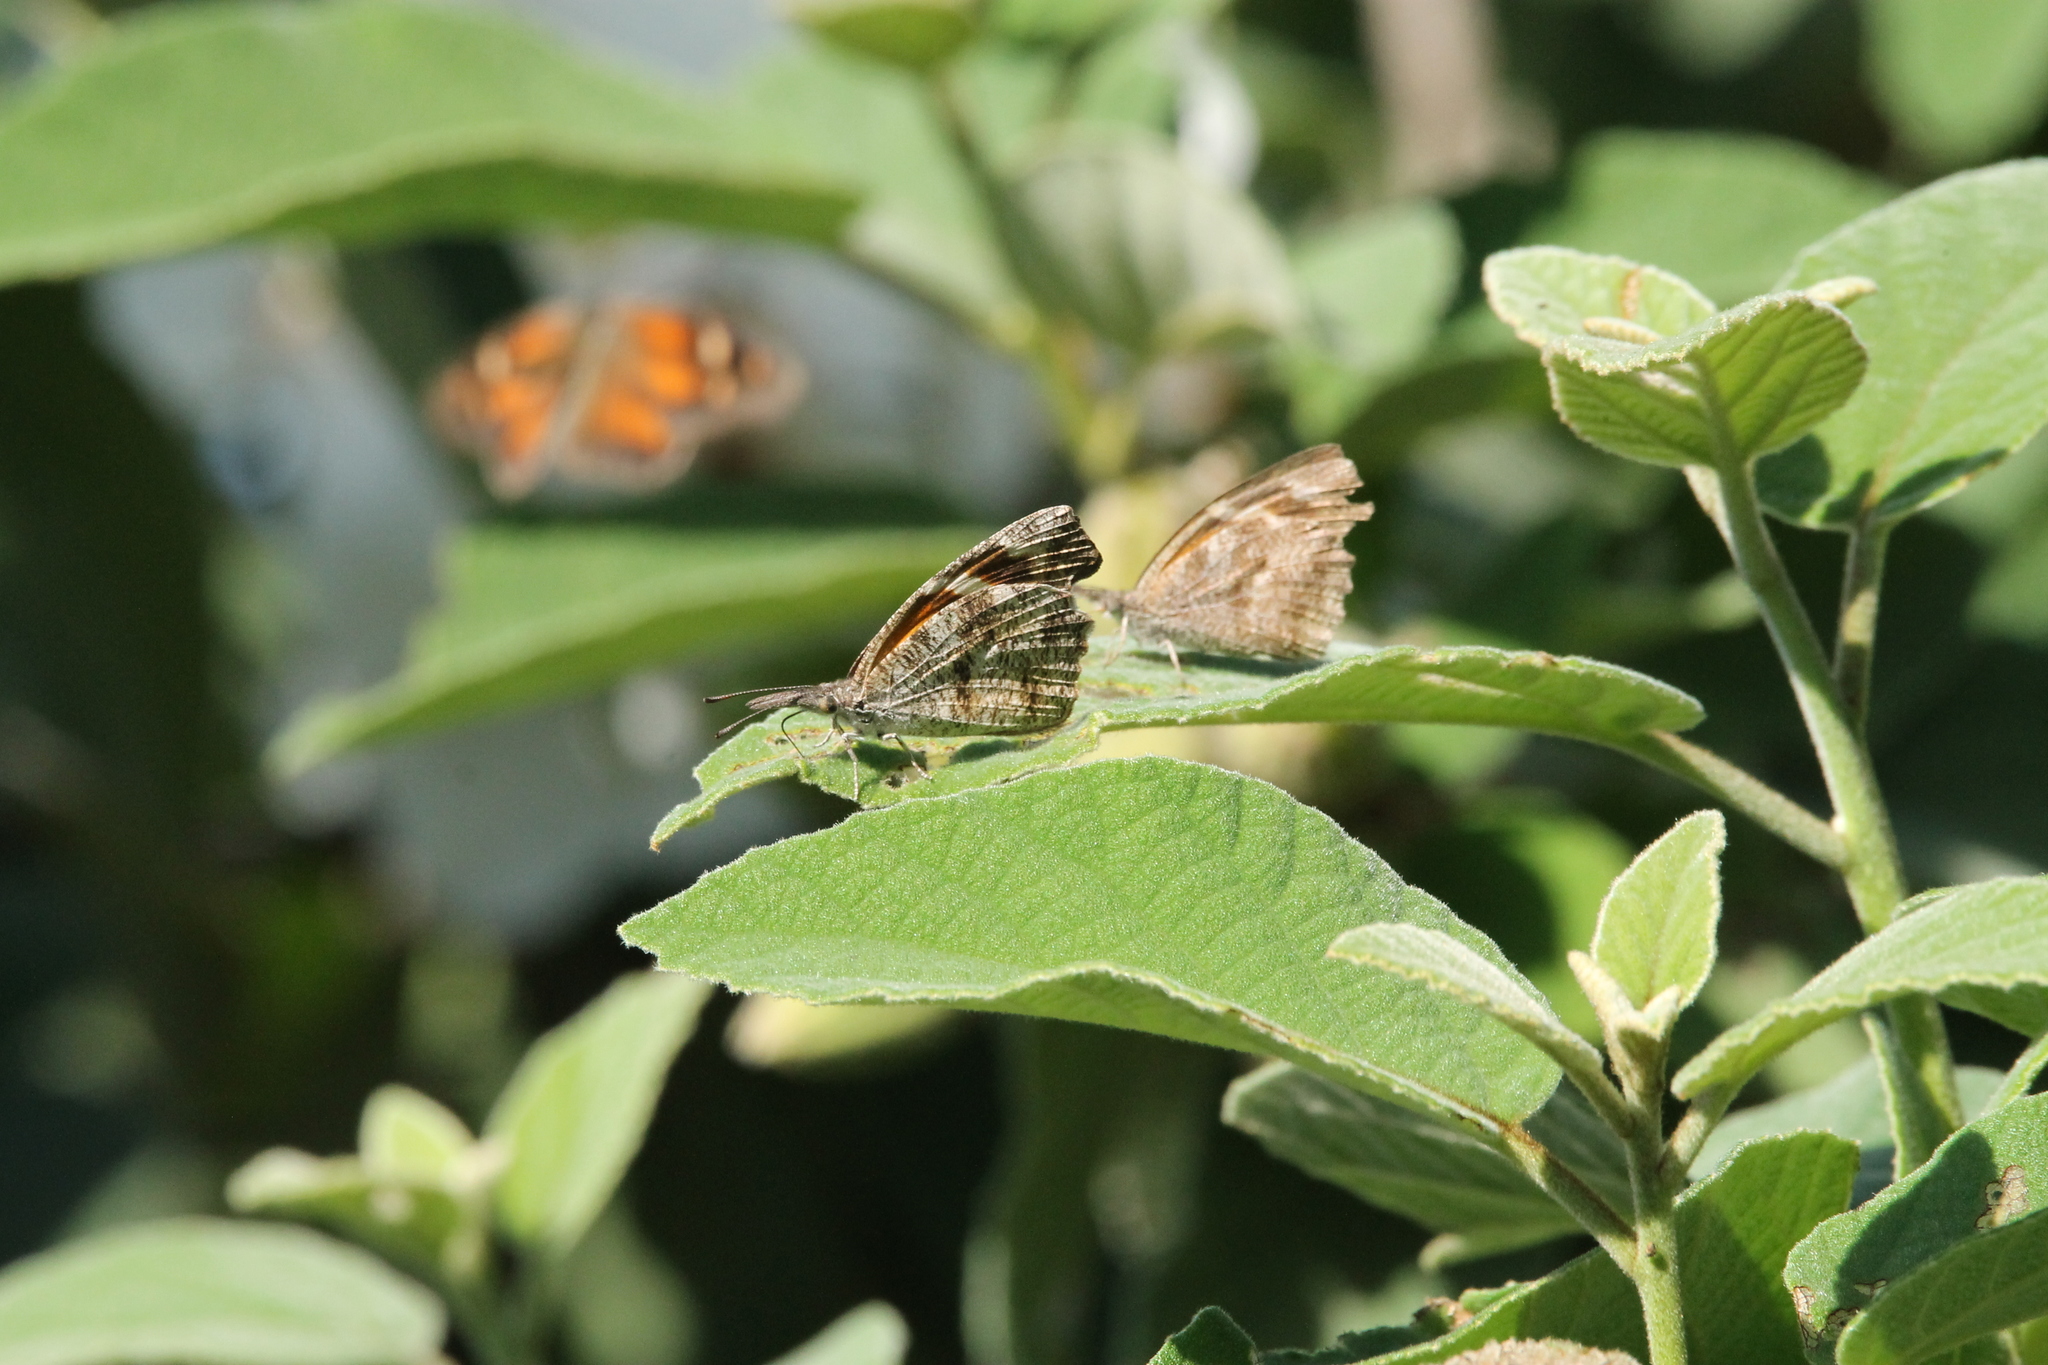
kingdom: Animalia
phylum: Arthropoda
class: Insecta
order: Lepidoptera
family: Nymphalidae
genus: Libytheana
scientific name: Libytheana carinenta
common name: American snout
